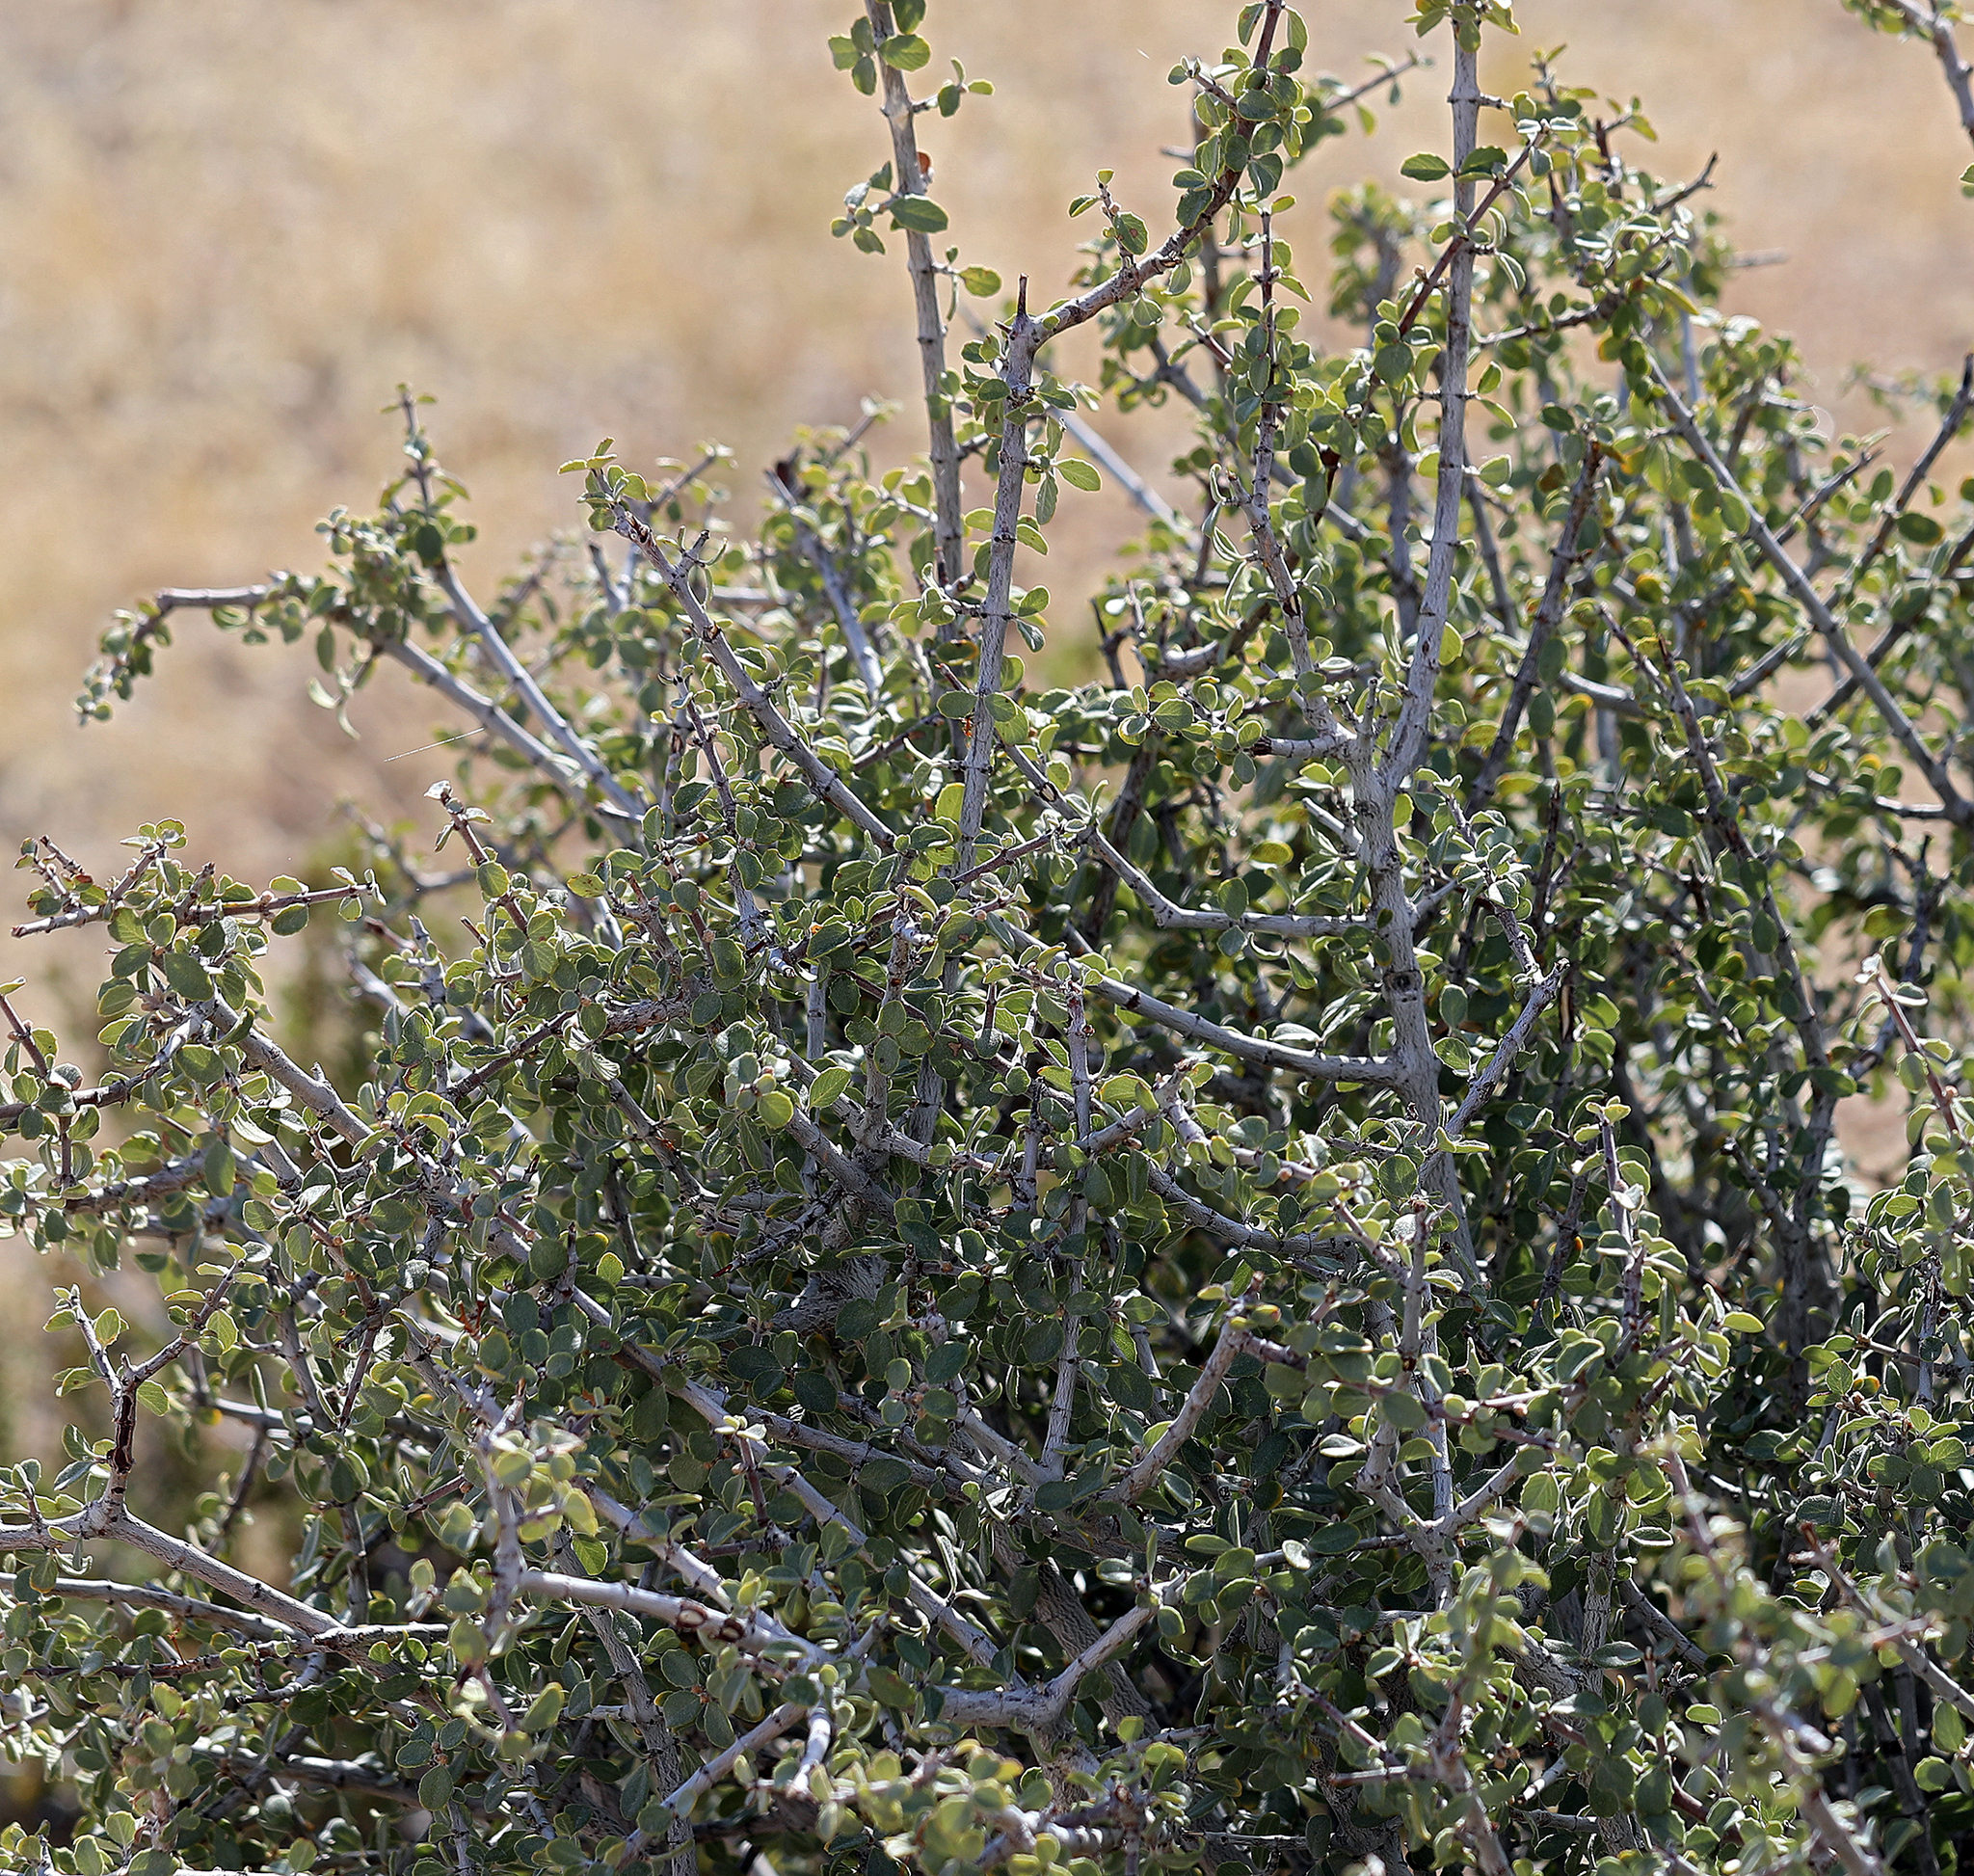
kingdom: Plantae
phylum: Tracheophyta
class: Magnoliopsida
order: Rosales
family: Rhamnaceae
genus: Ceanothus
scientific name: Ceanothus pauciflorus
